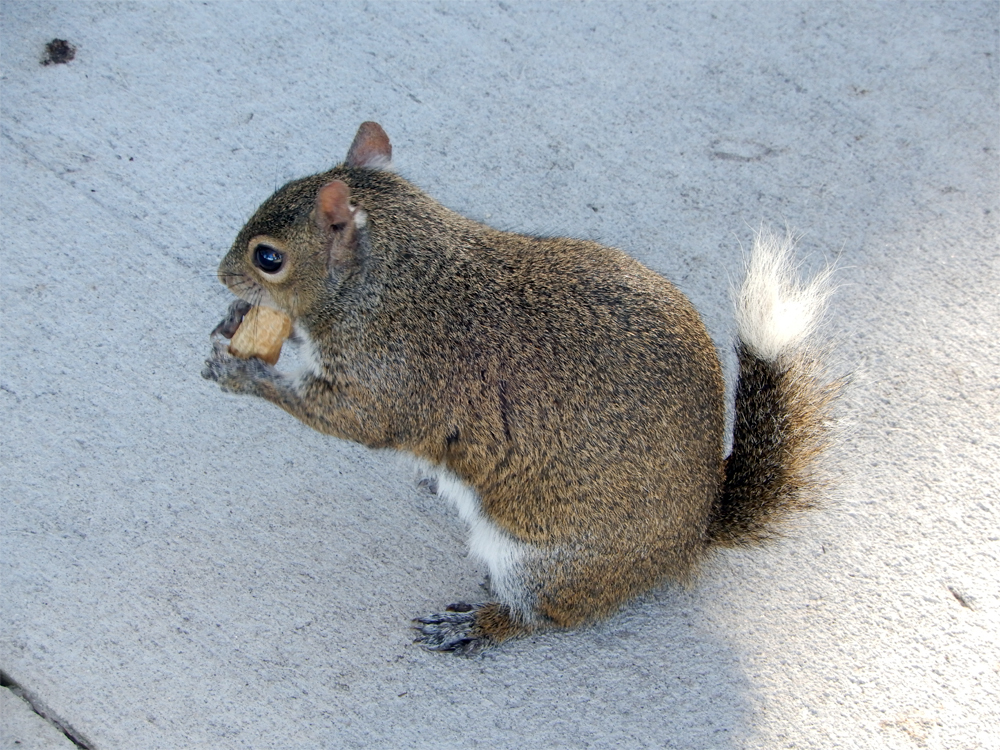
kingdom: Animalia
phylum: Chordata
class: Mammalia
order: Rodentia
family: Sciuridae
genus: Sciurus
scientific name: Sciurus carolinensis
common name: Eastern gray squirrel
